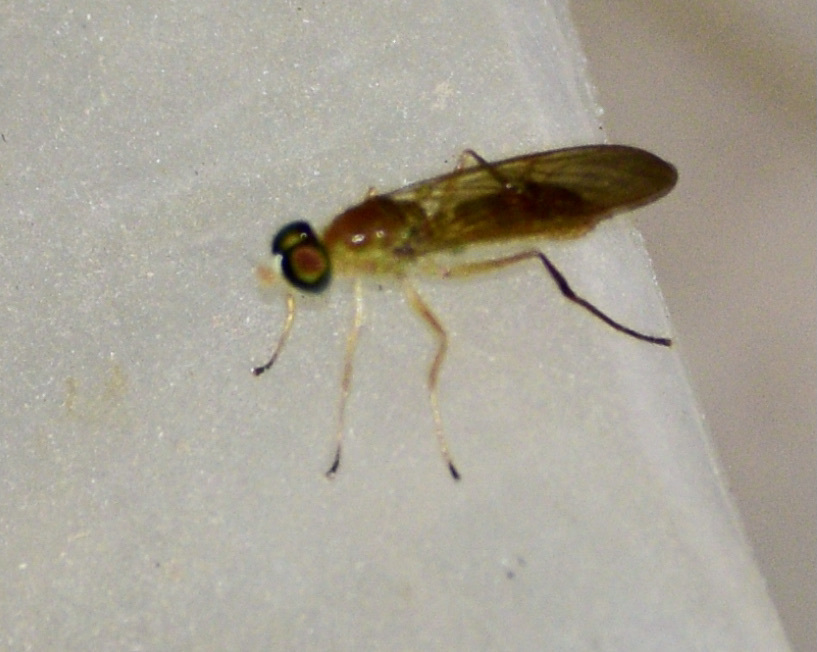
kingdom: Animalia
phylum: Arthropoda
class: Insecta
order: Diptera
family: Stratiomyidae
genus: Ptecticus
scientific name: Ptecticus trivittatus
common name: Compost fly
